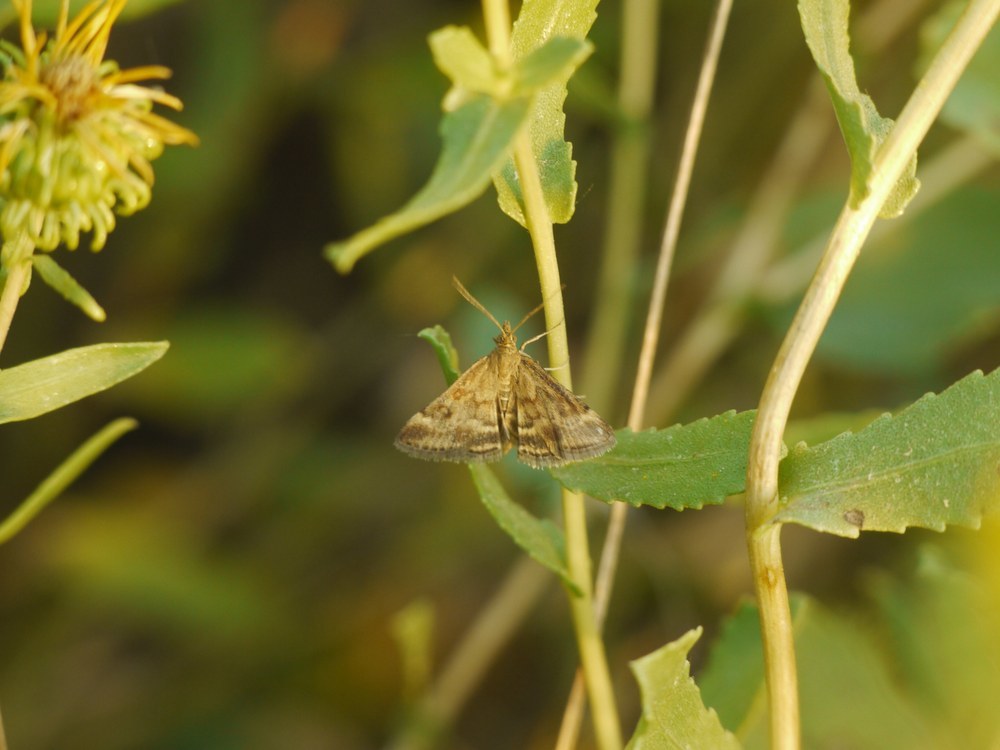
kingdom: Animalia
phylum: Arthropoda
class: Insecta
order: Lepidoptera
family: Crambidae
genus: Pyrausta
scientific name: Pyrausta despicata
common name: Straw-barred pearl
